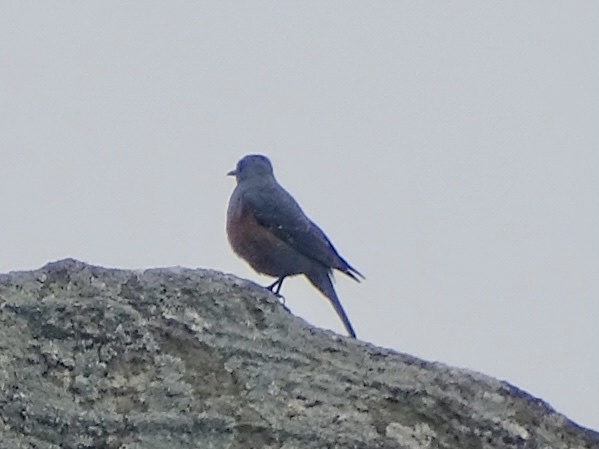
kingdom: Animalia
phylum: Chordata
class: Aves
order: Passeriformes
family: Muscicapidae
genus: Monticola
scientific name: Monticola solitarius
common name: Blue rock thrush
